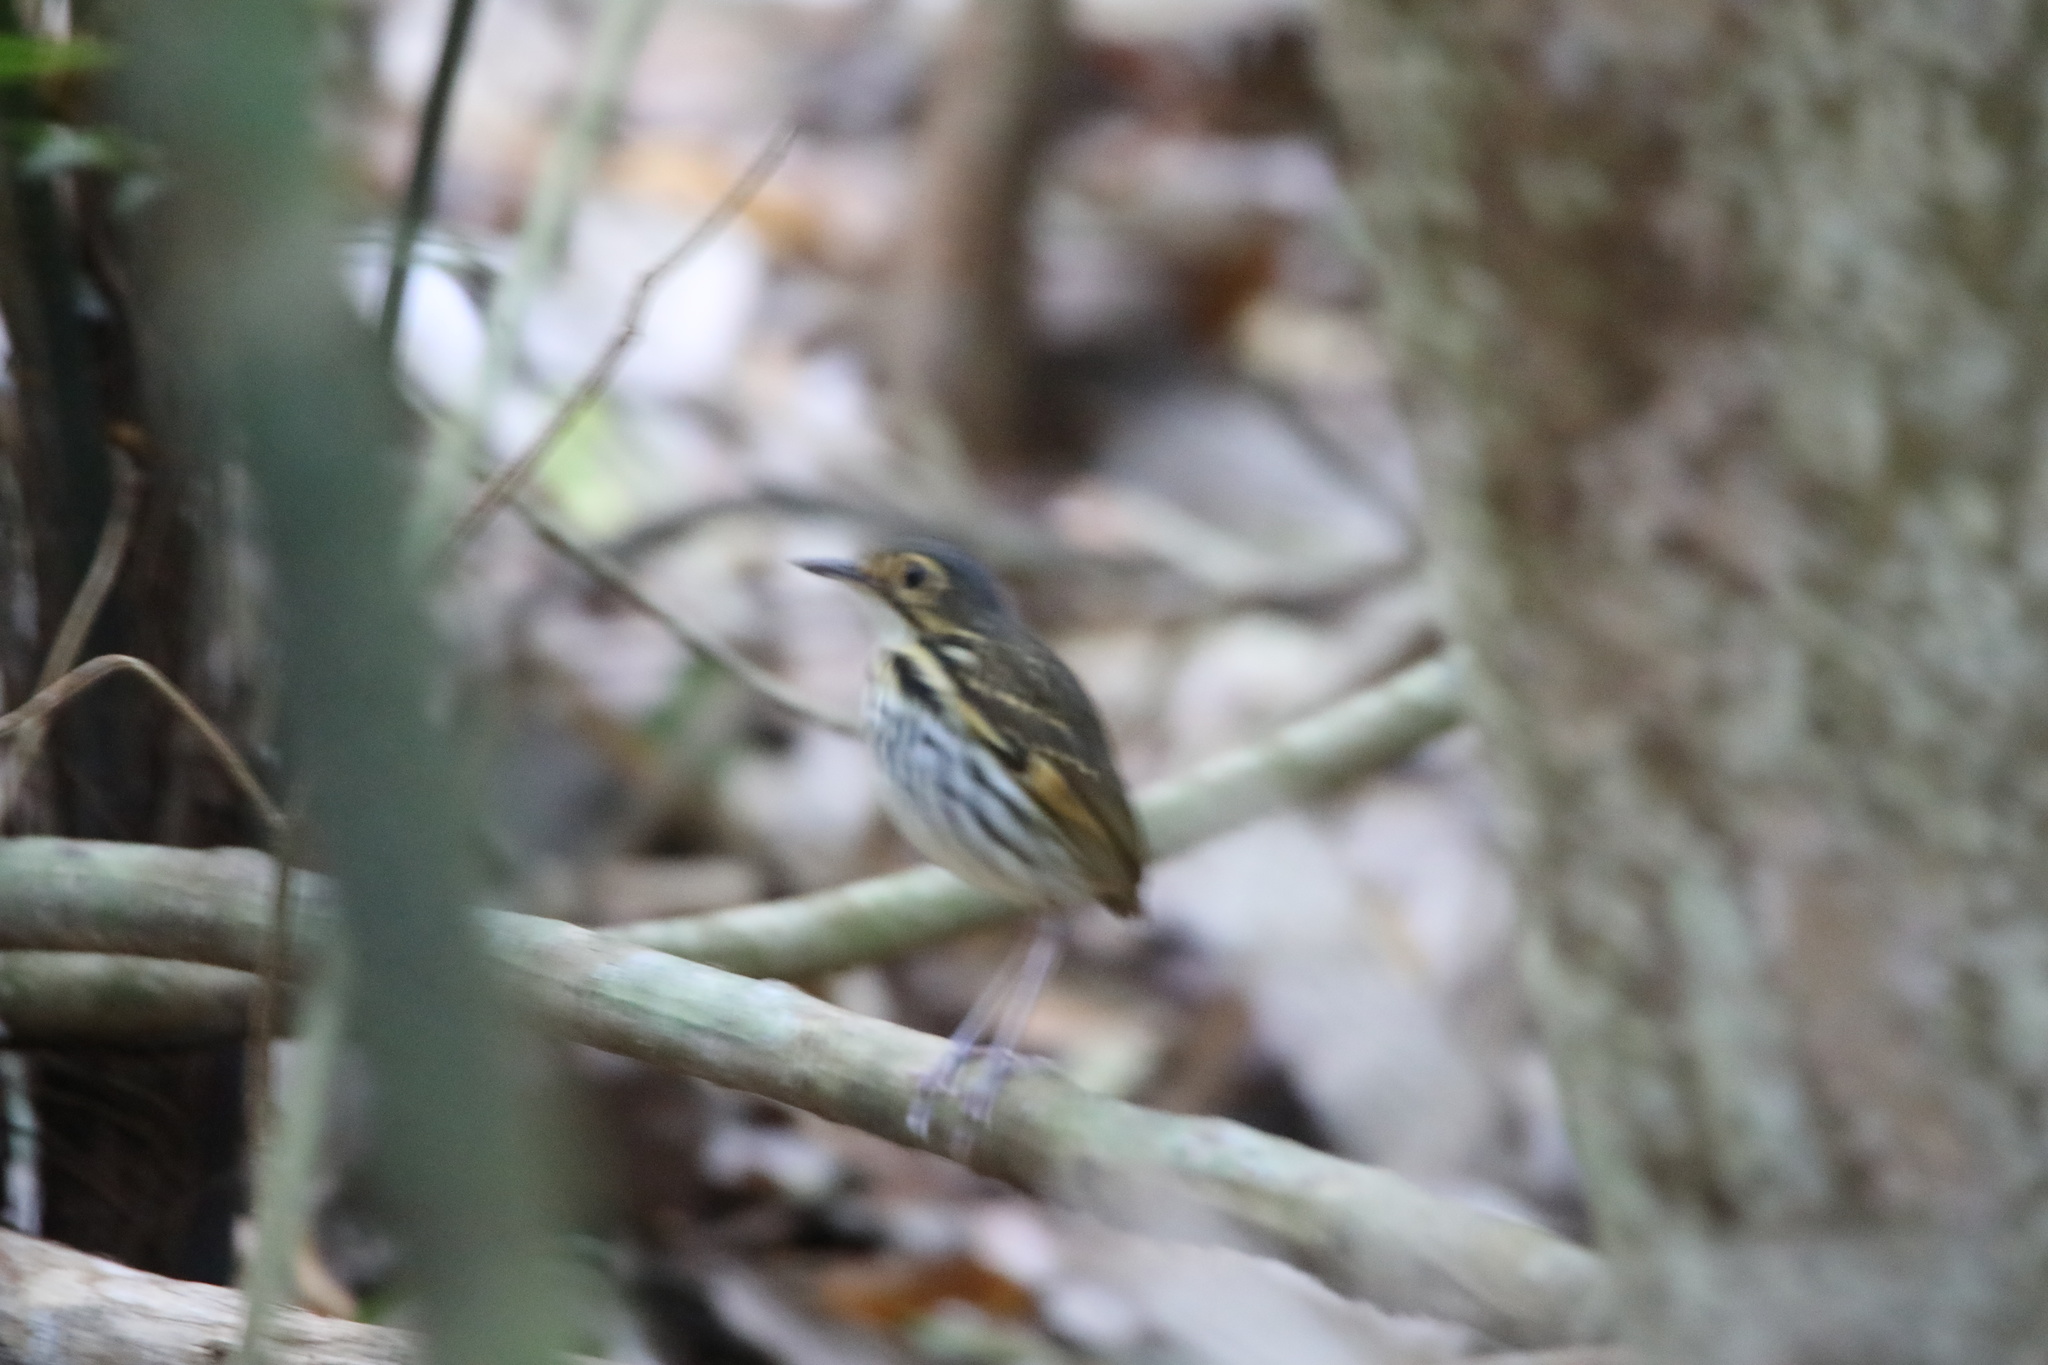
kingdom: Animalia
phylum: Chordata
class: Aves
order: Passeriformes
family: Grallariidae
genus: Hylopezus
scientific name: Hylopezus perspicillatus
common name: Streak-chested antpitta
